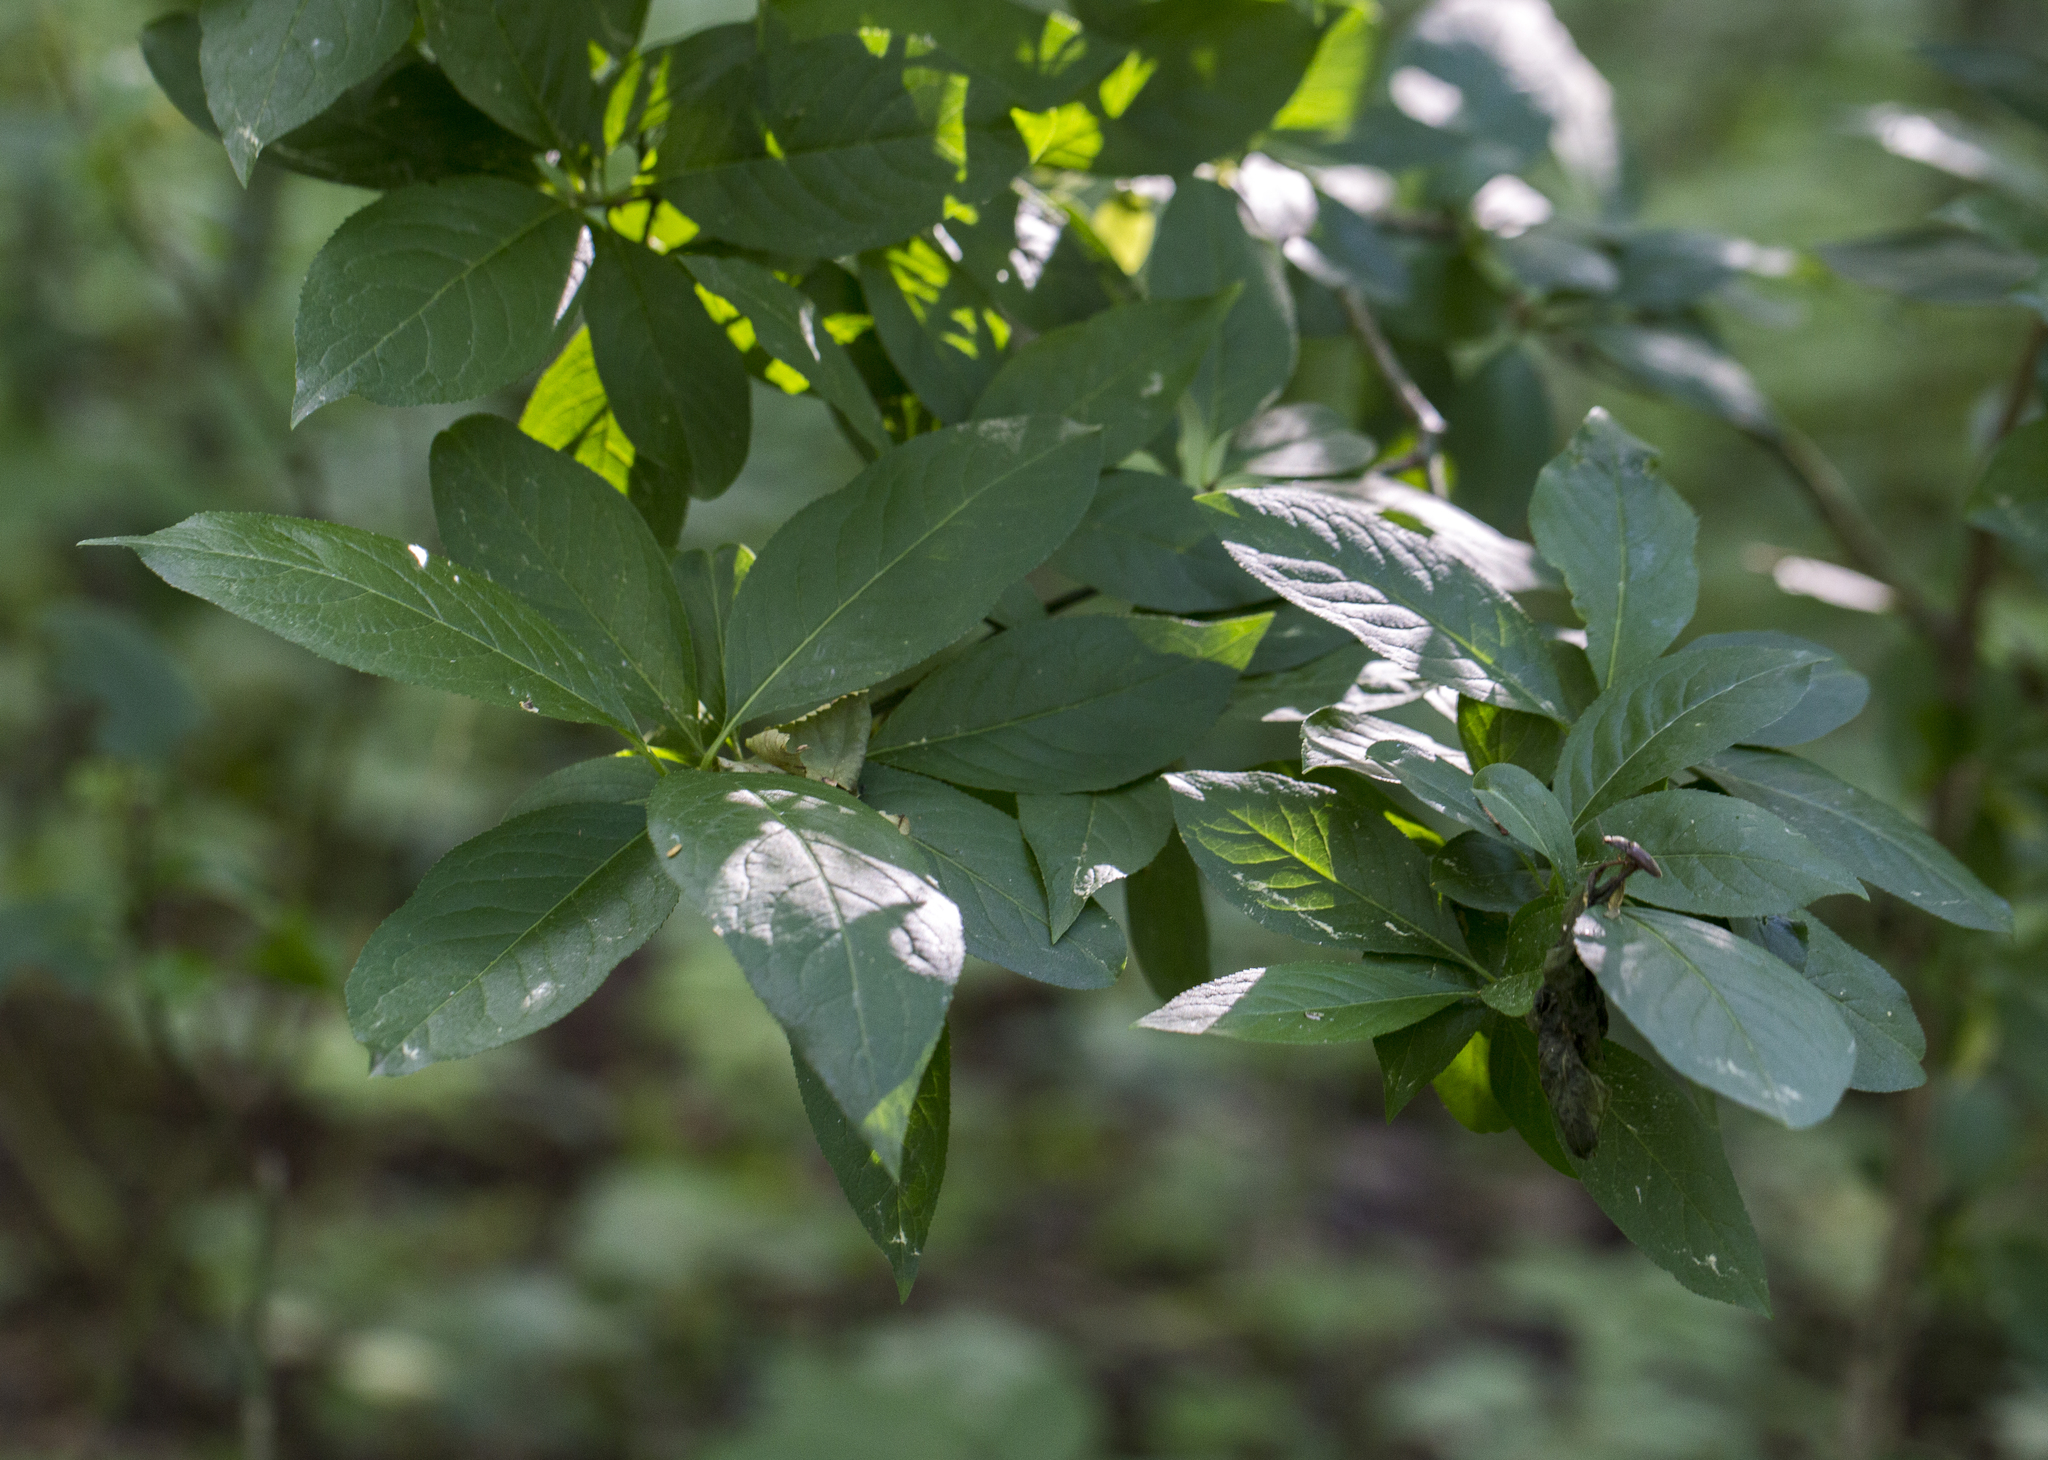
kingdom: Plantae
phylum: Tracheophyta
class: Magnoliopsida
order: Celastrales
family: Celastraceae
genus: Euonymus
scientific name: Euonymus europaeus
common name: Spindle
